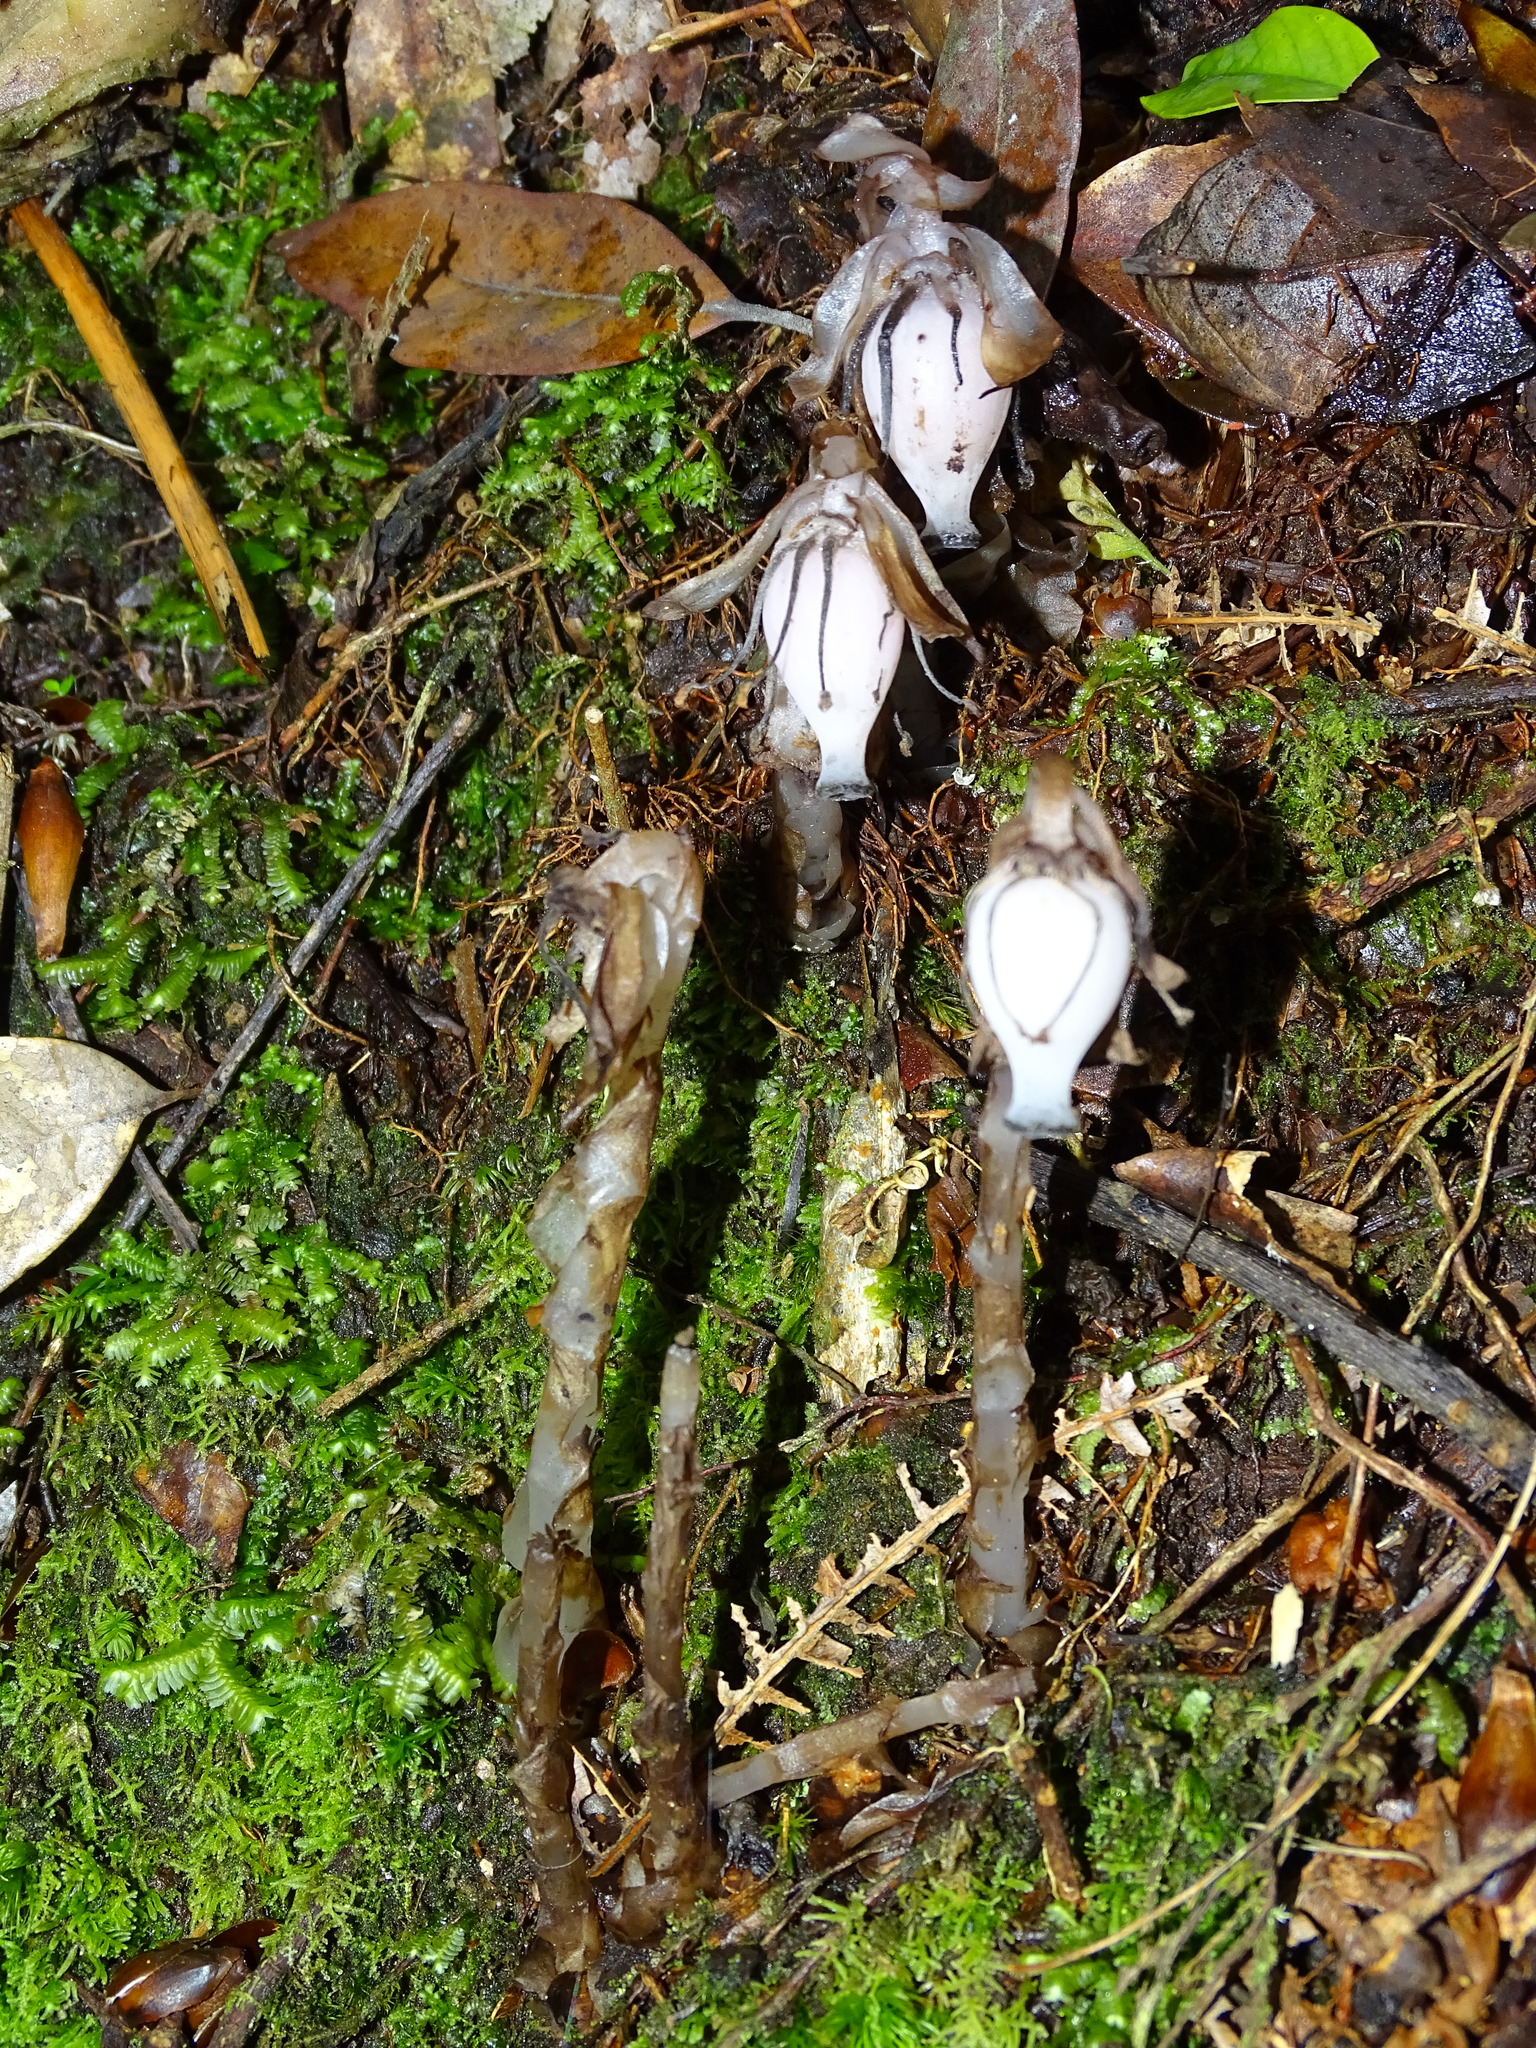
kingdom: Plantae
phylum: Tracheophyta
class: Magnoliopsida
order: Ericales
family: Ericaceae
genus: Monotropastrum
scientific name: Monotropastrum humile
